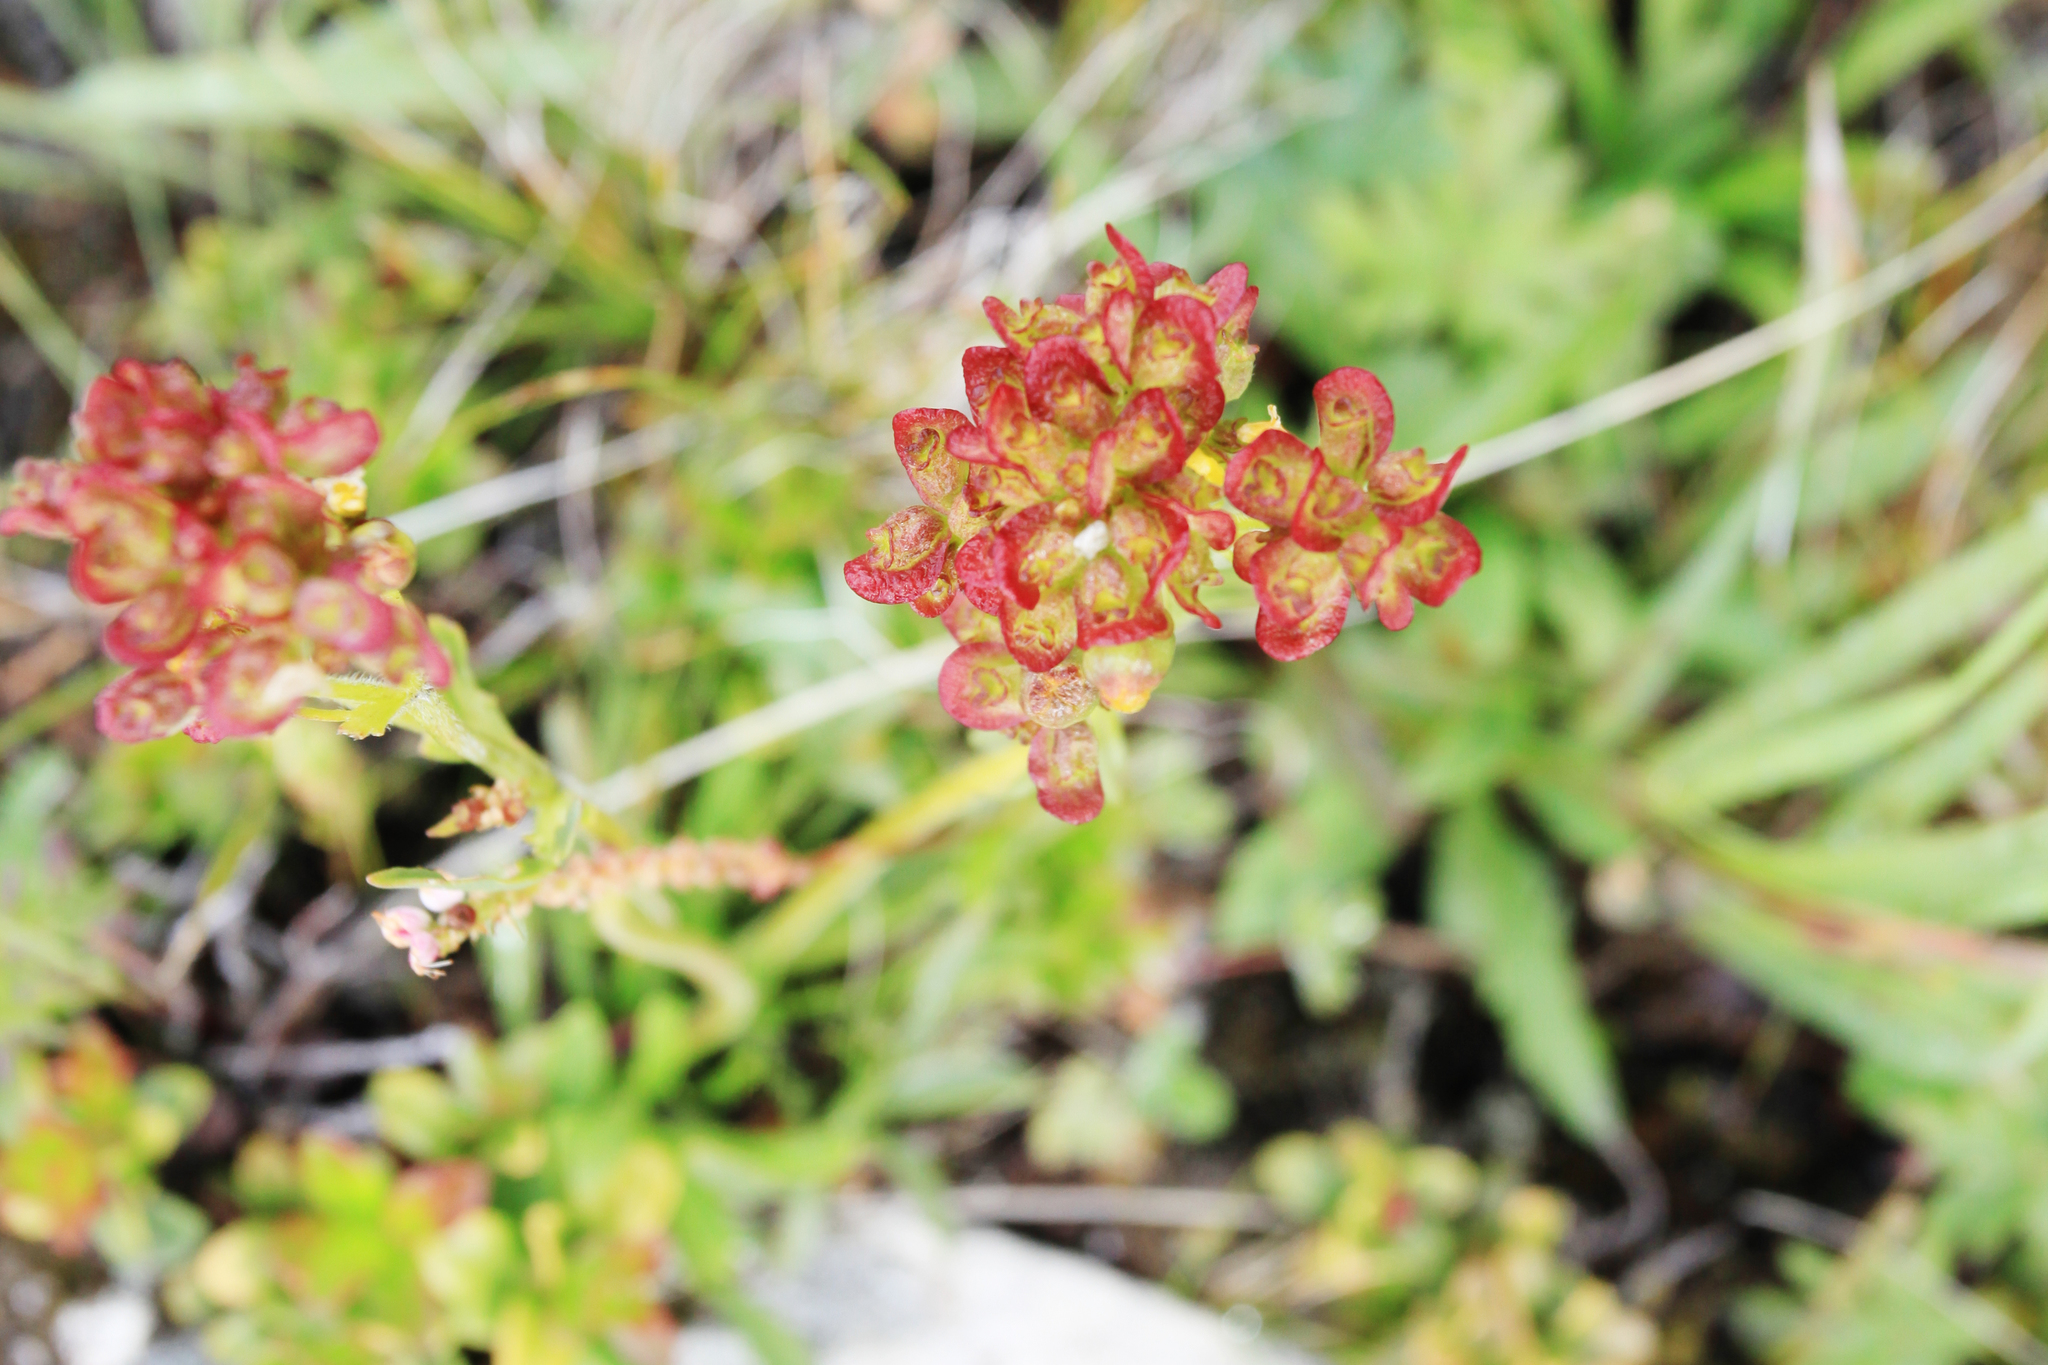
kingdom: Plantae
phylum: Tracheophyta
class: Magnoliopsida
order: Dipsacales
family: Caprifoliaceae
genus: Patrinia
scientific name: Patrinia sibirica
